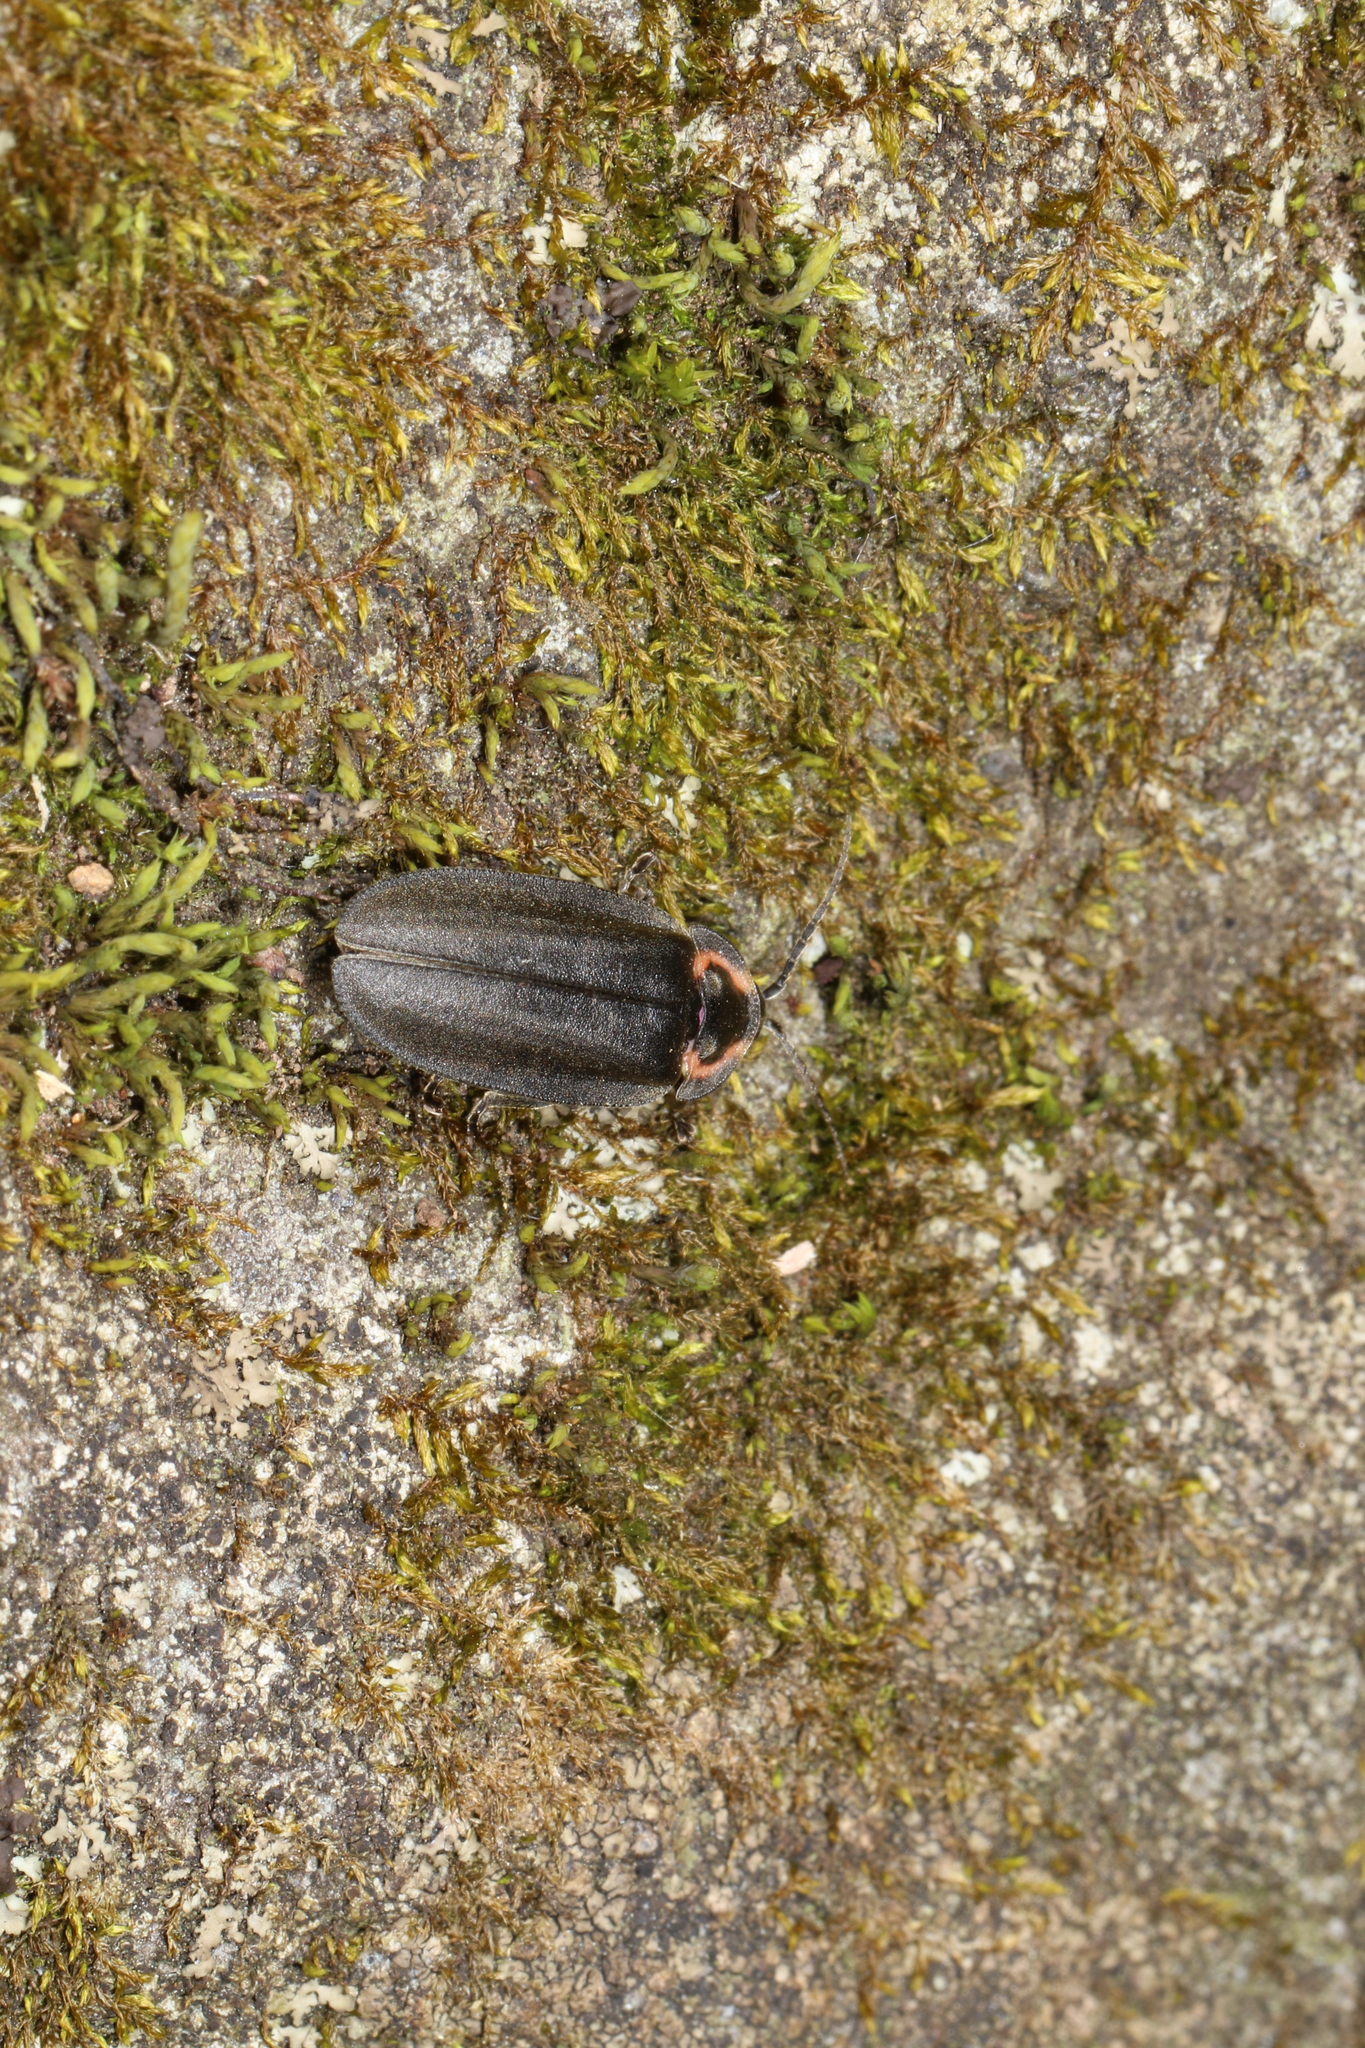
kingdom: Animalia
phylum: Arthropoda
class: Insecta
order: Coleoptera
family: Lampyridae
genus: Photinus
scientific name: Photinus corrusca
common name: Winter firefly
